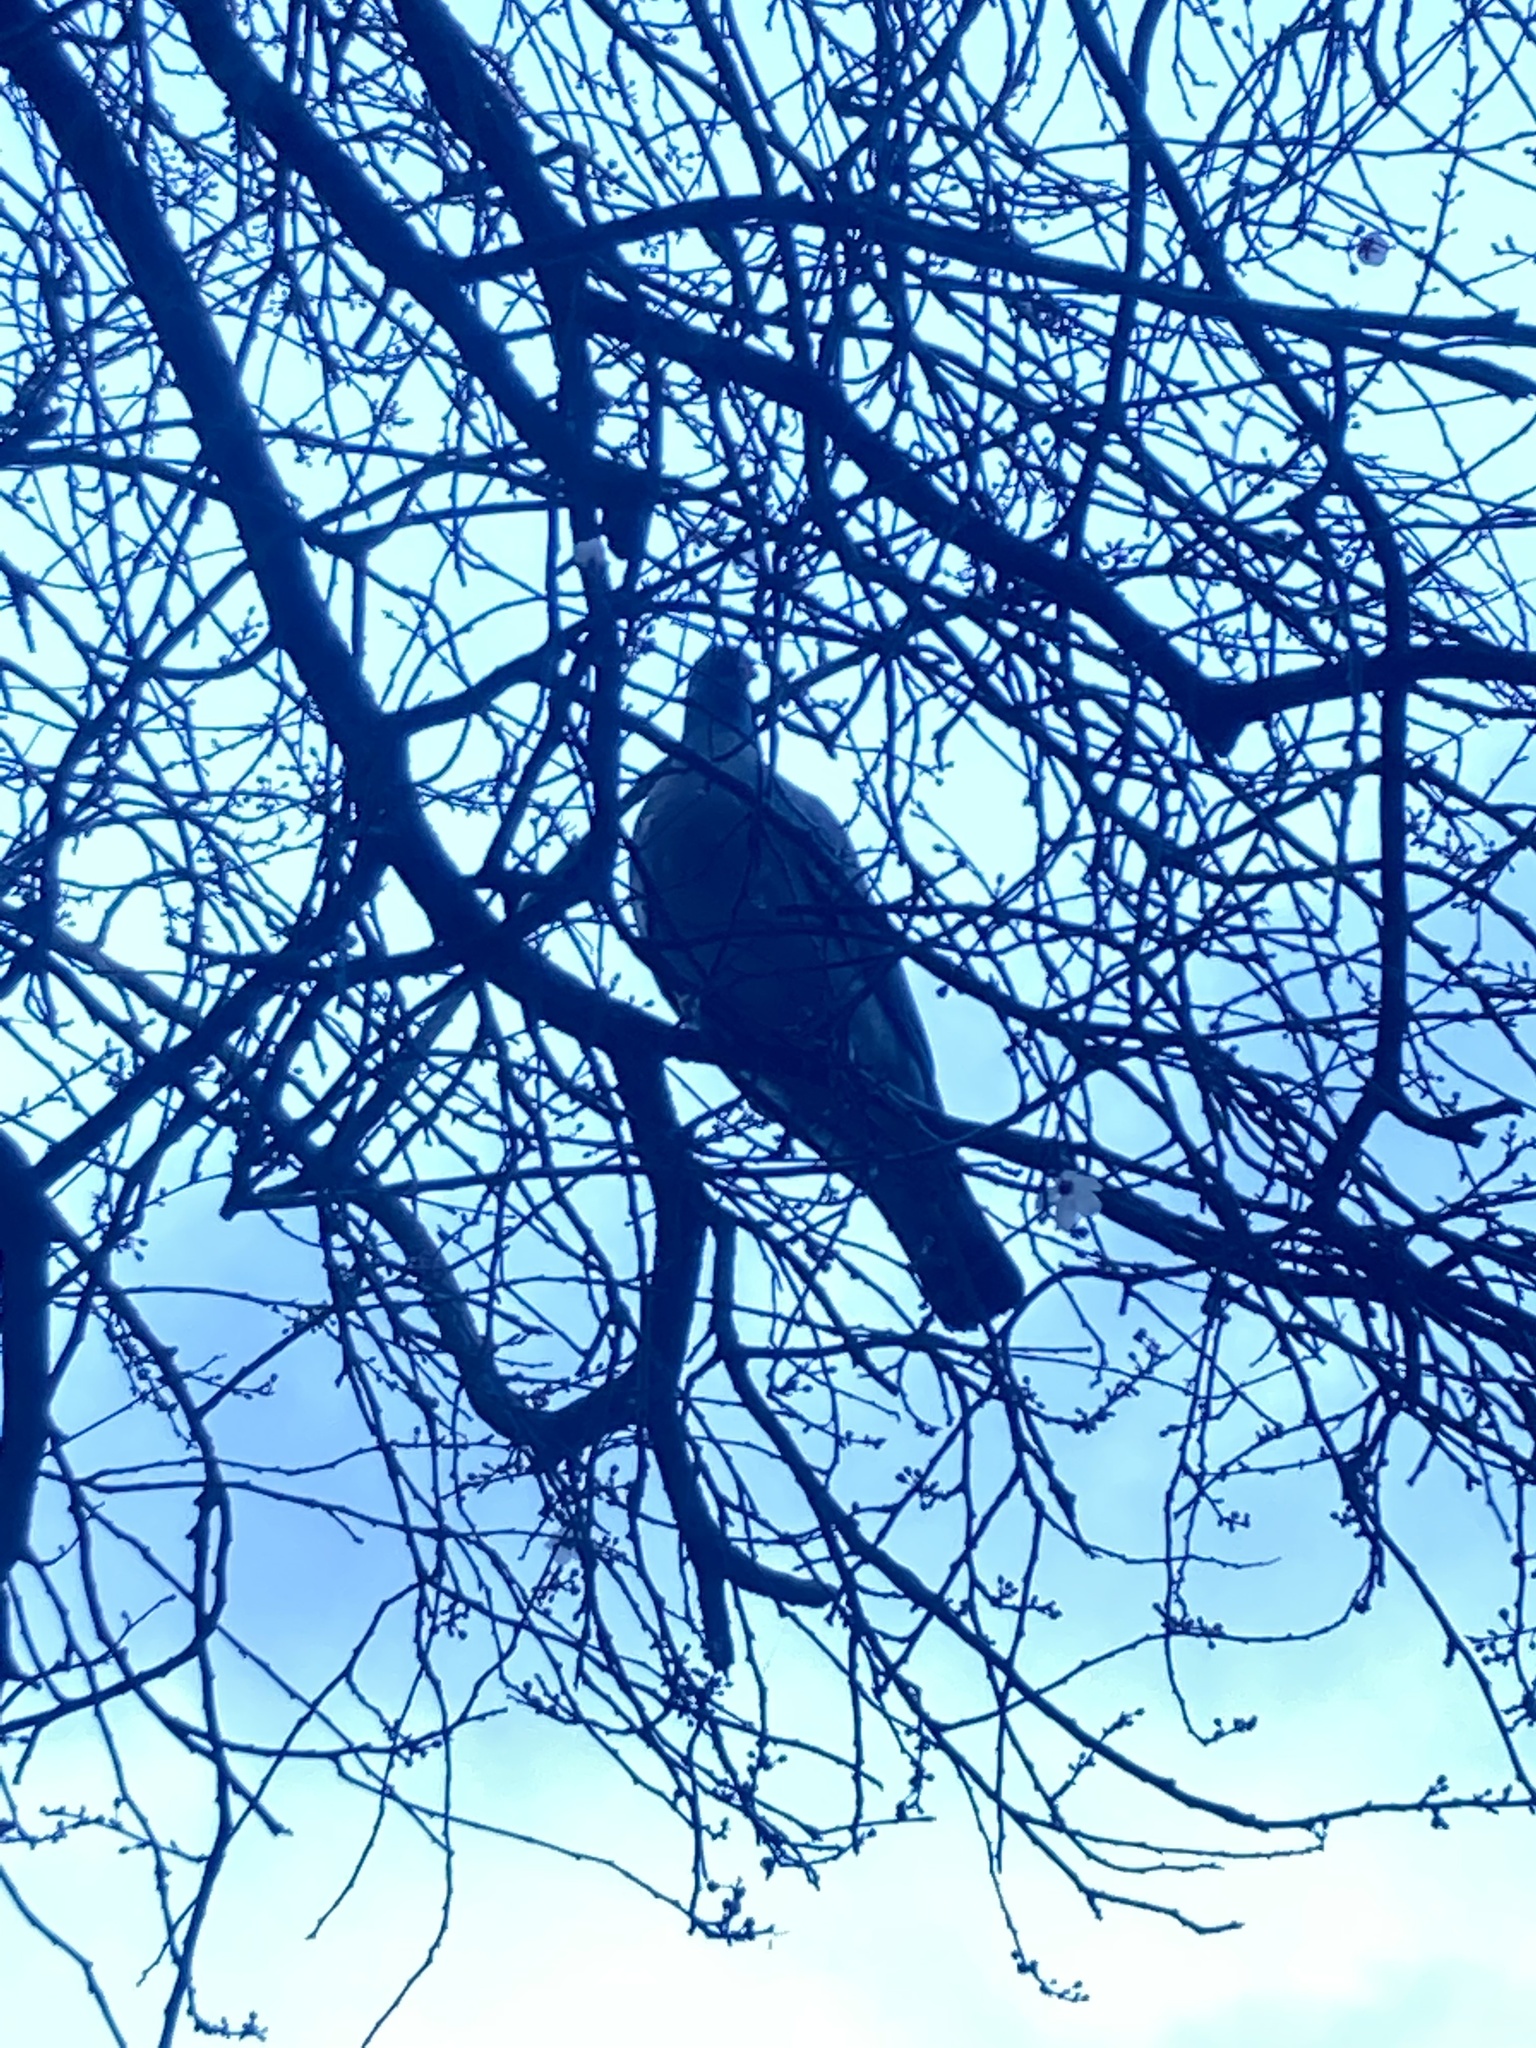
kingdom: Animalia
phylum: Chordata
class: Aves
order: Columbiformes
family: Columbidae
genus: Columba
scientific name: Columba palumbus
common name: Common wood pigeon
